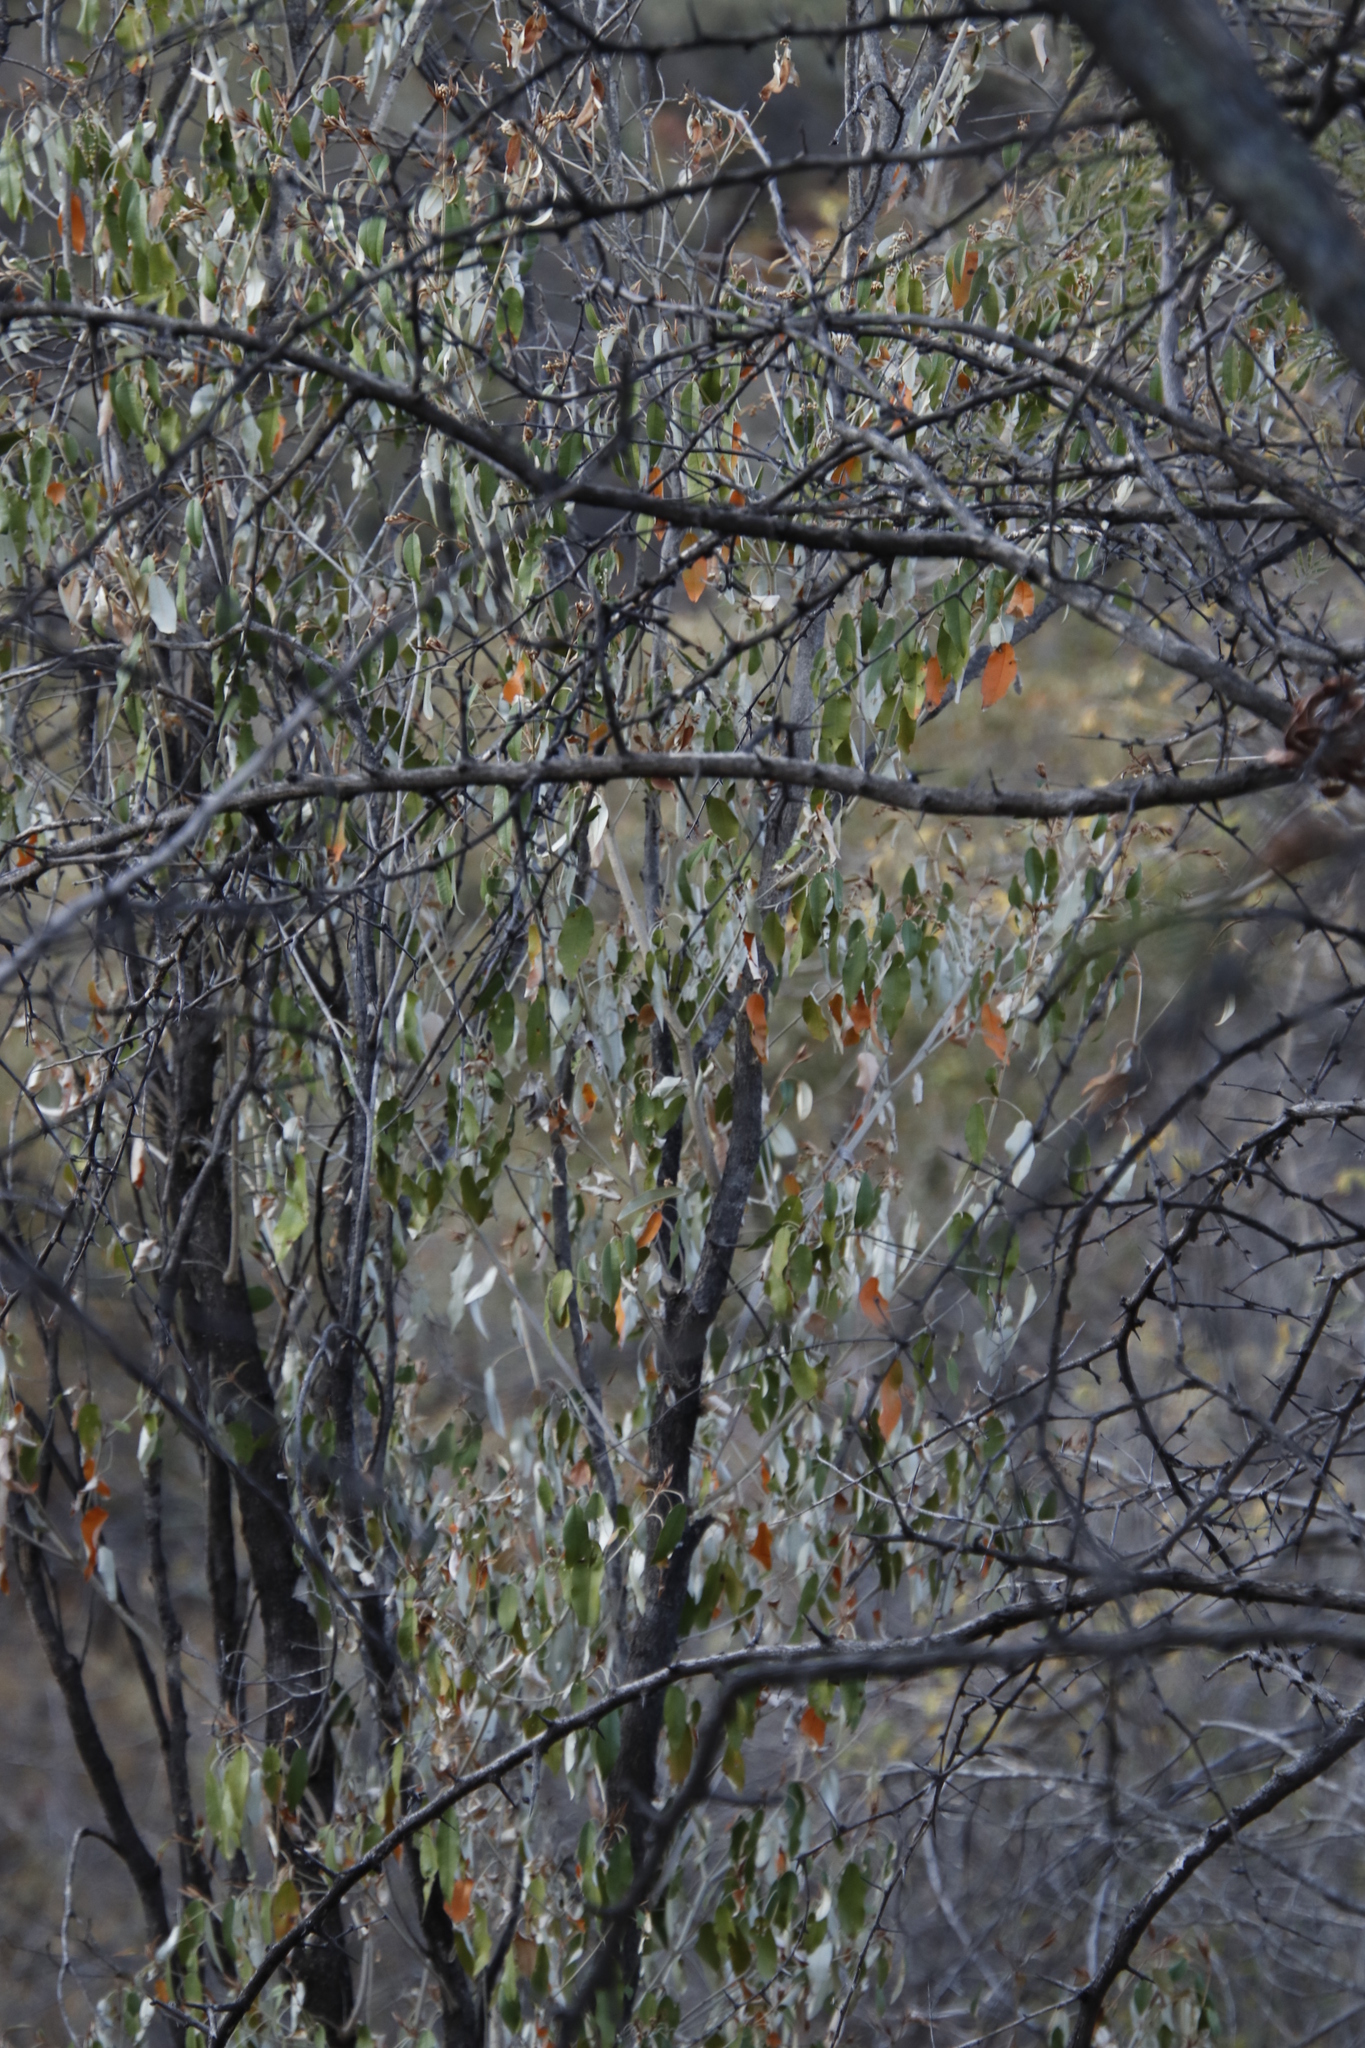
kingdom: Plantae
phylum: Tracheophyta
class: Magnoliopsida
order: Malpighiales
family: Euphorbiaceae
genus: Croton
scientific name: Croton gratissimus
